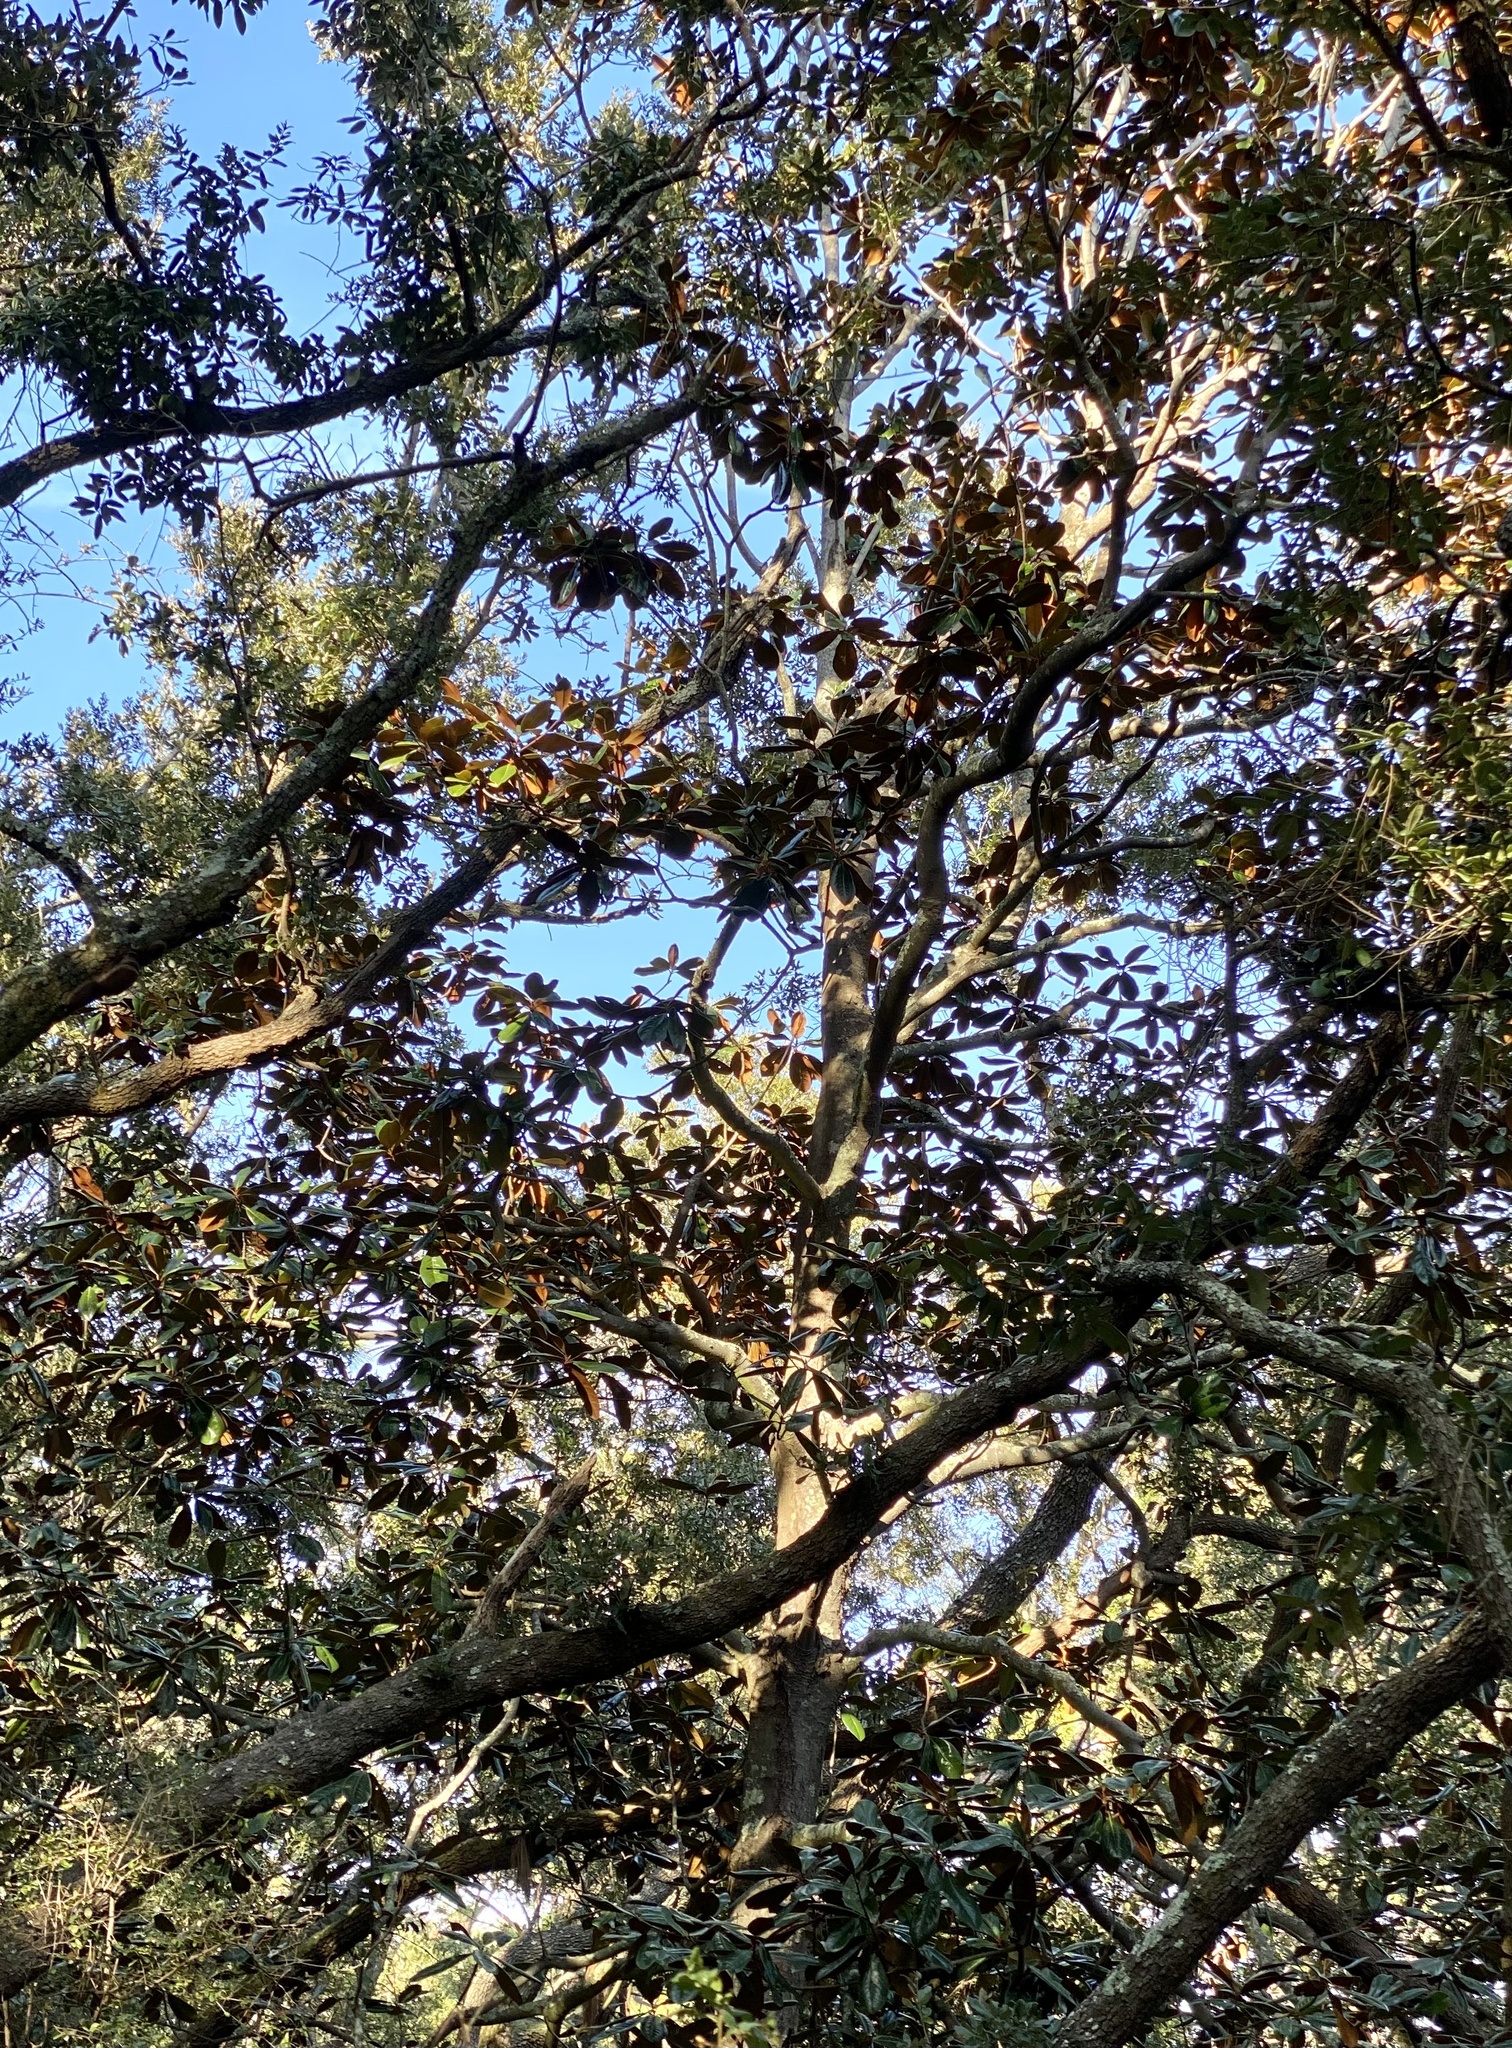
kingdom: Plantae
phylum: Tracheophyta
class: Magnoliopsida
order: Magnoliales
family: Magnoliaceae
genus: Magnolia
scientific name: Magnolia grandiflora
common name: Southern magnolia
